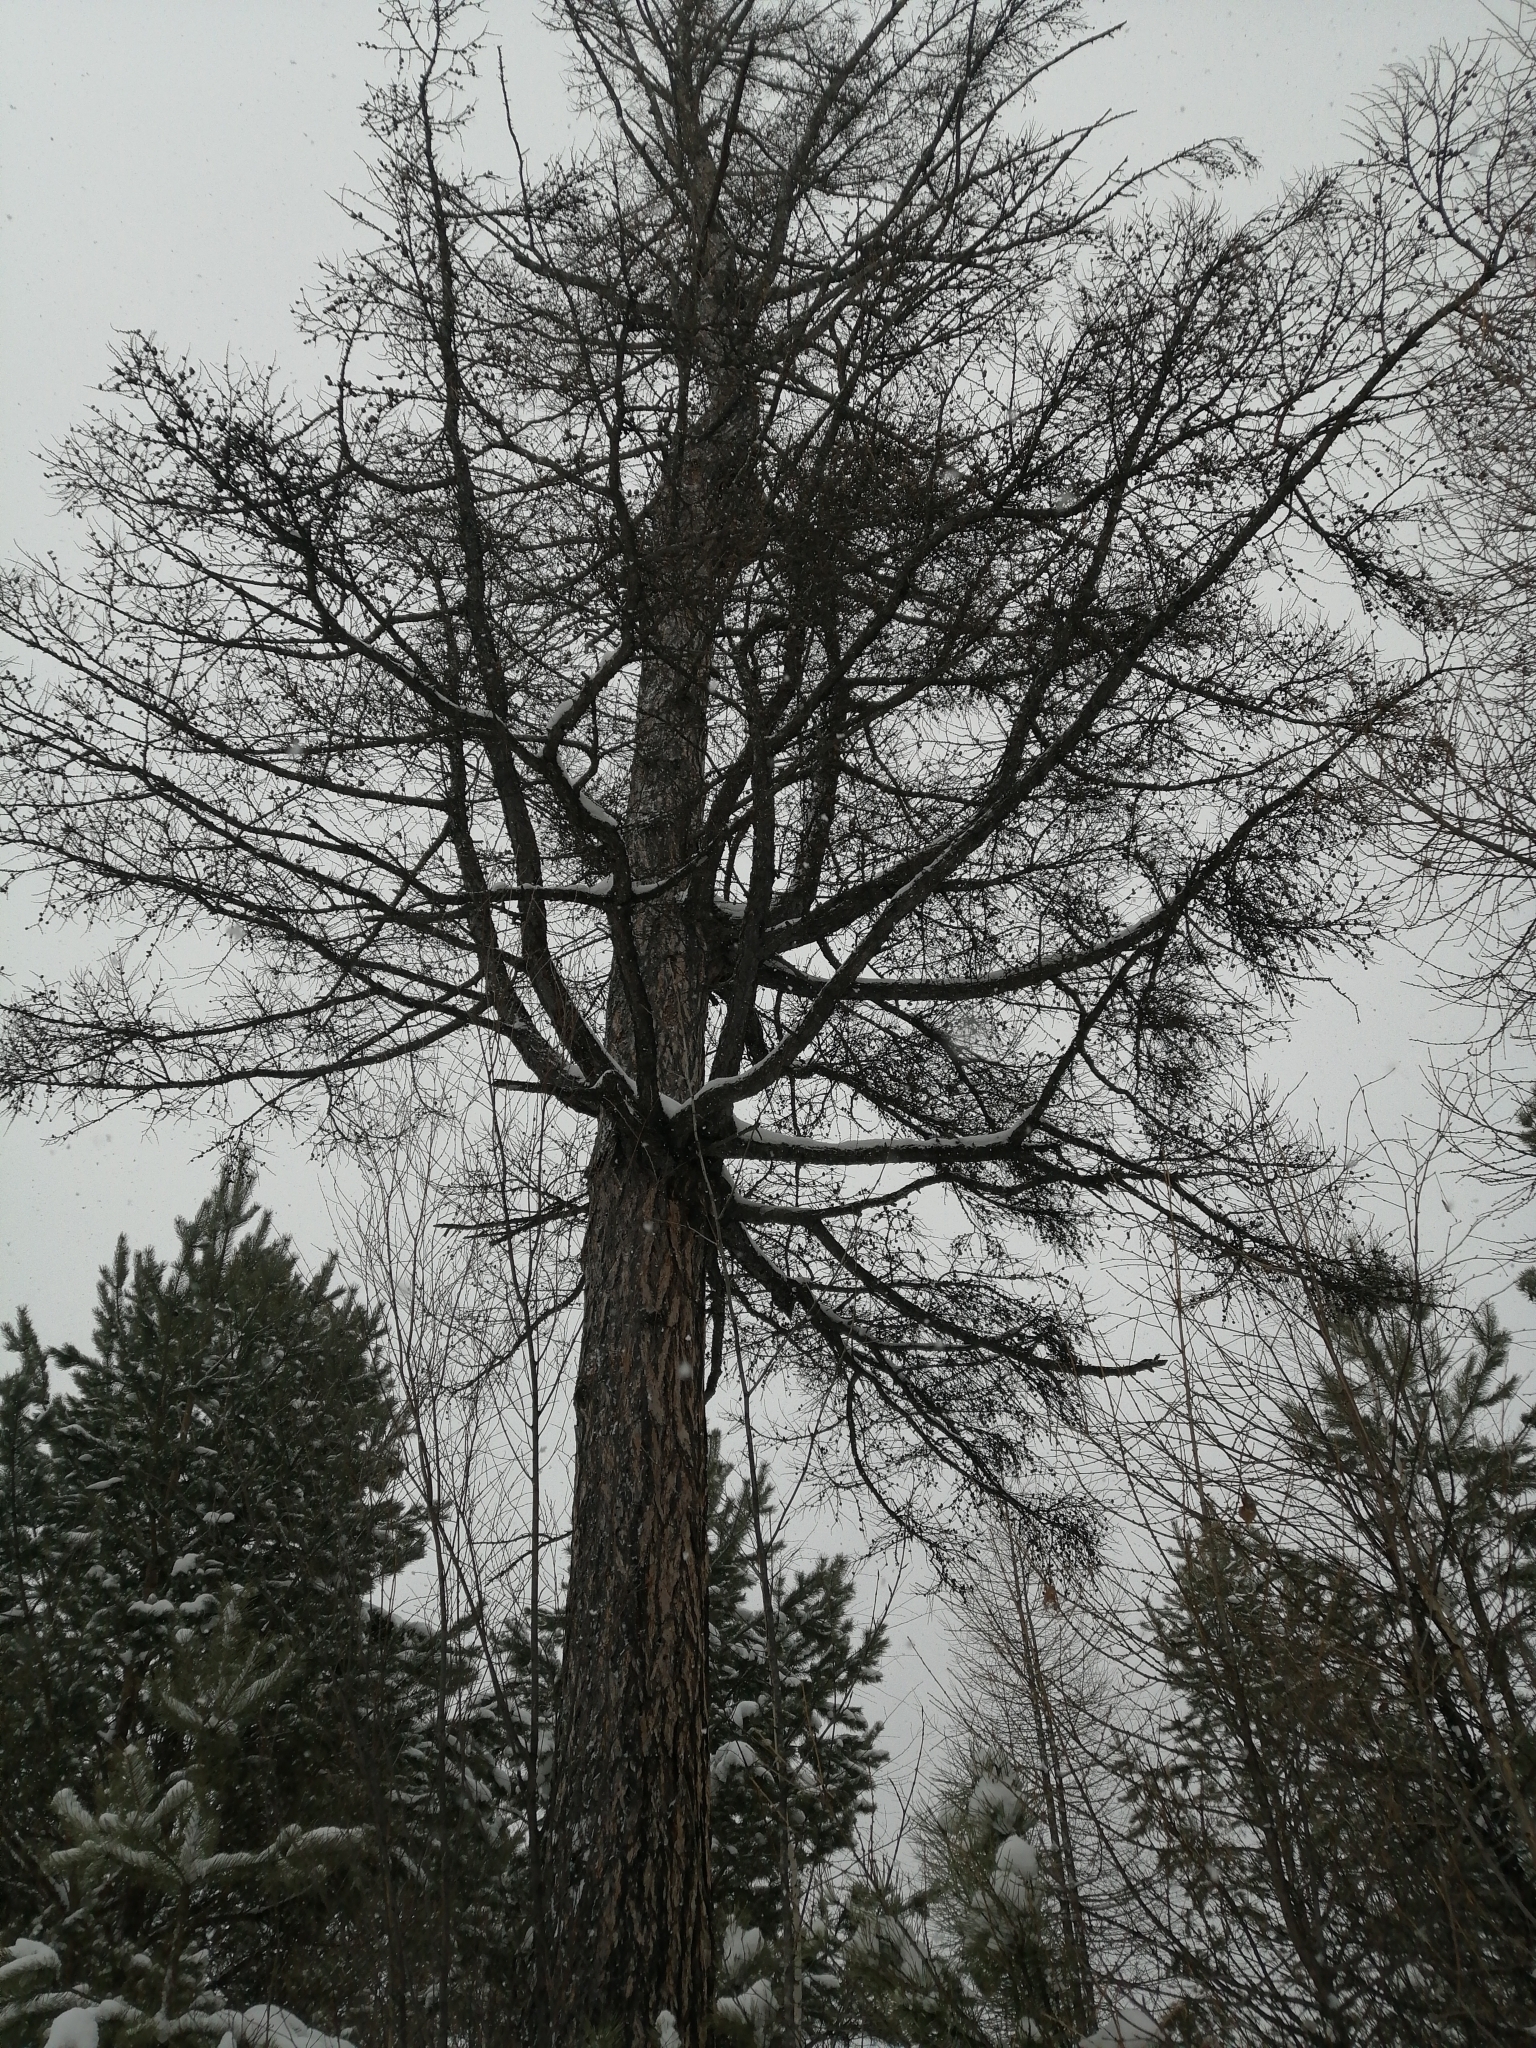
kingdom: Plantae
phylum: Tracheophyta
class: Pinopsida
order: Pinales
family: Pinaceae
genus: Larix
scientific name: Larix sibirica
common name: Siberian larch
